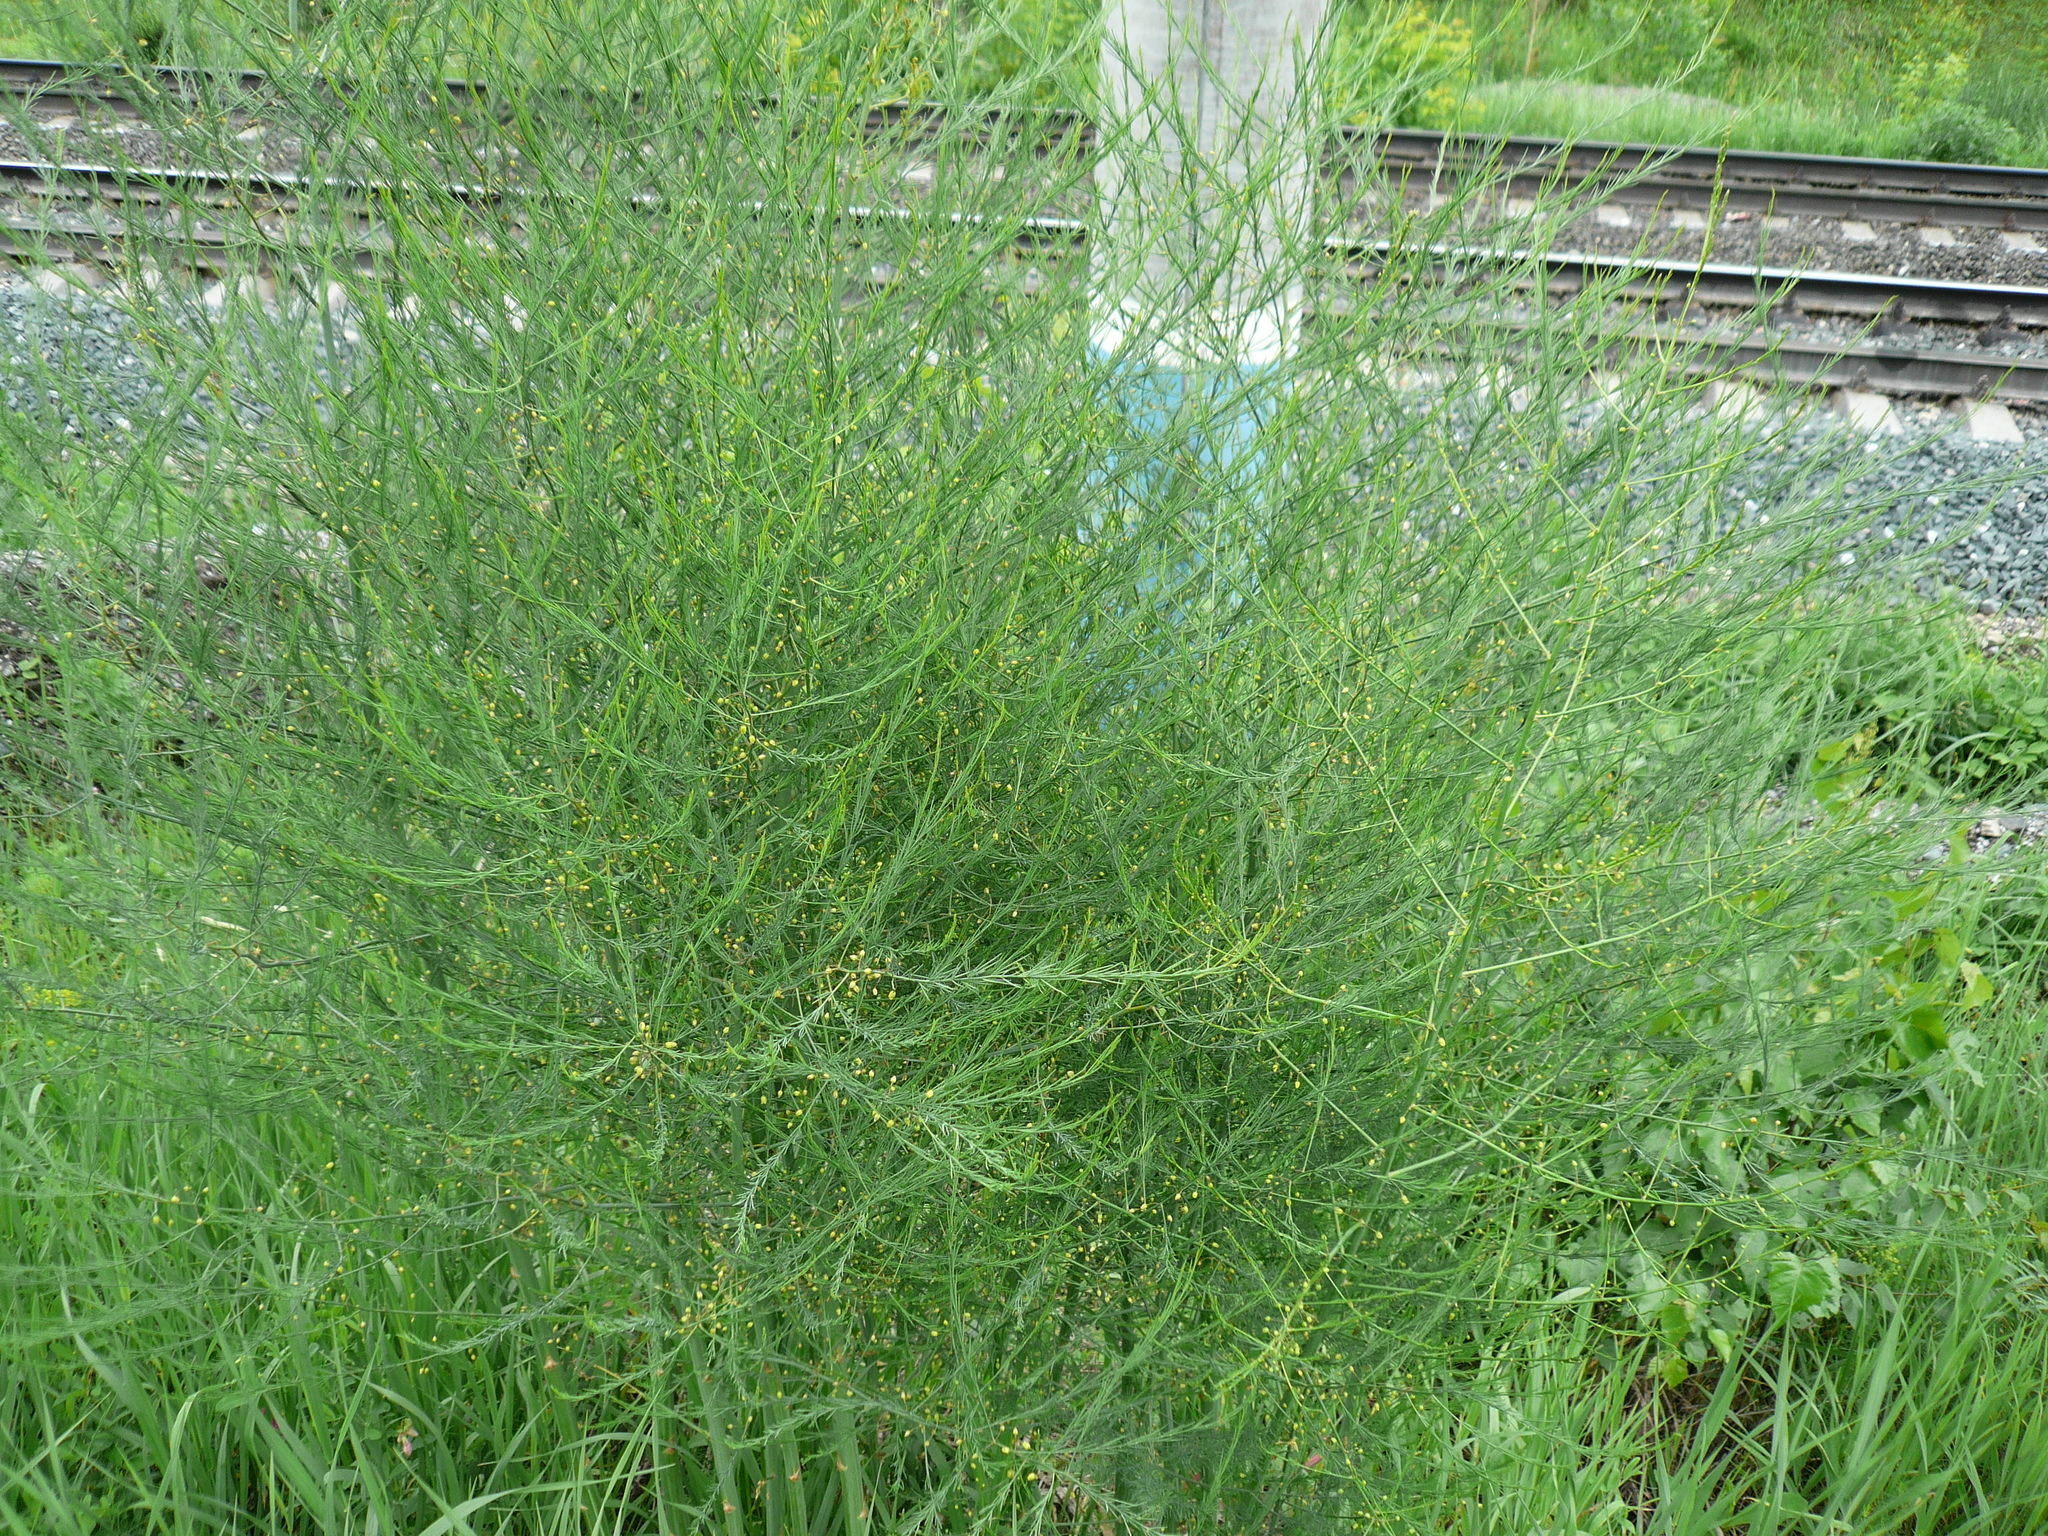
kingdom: Plantae
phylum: Tracheophyta
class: Liliopsida
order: Asparagales
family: Asparagaceae
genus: Asparagus
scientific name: Asparagus officinalis
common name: Garden asparagus
